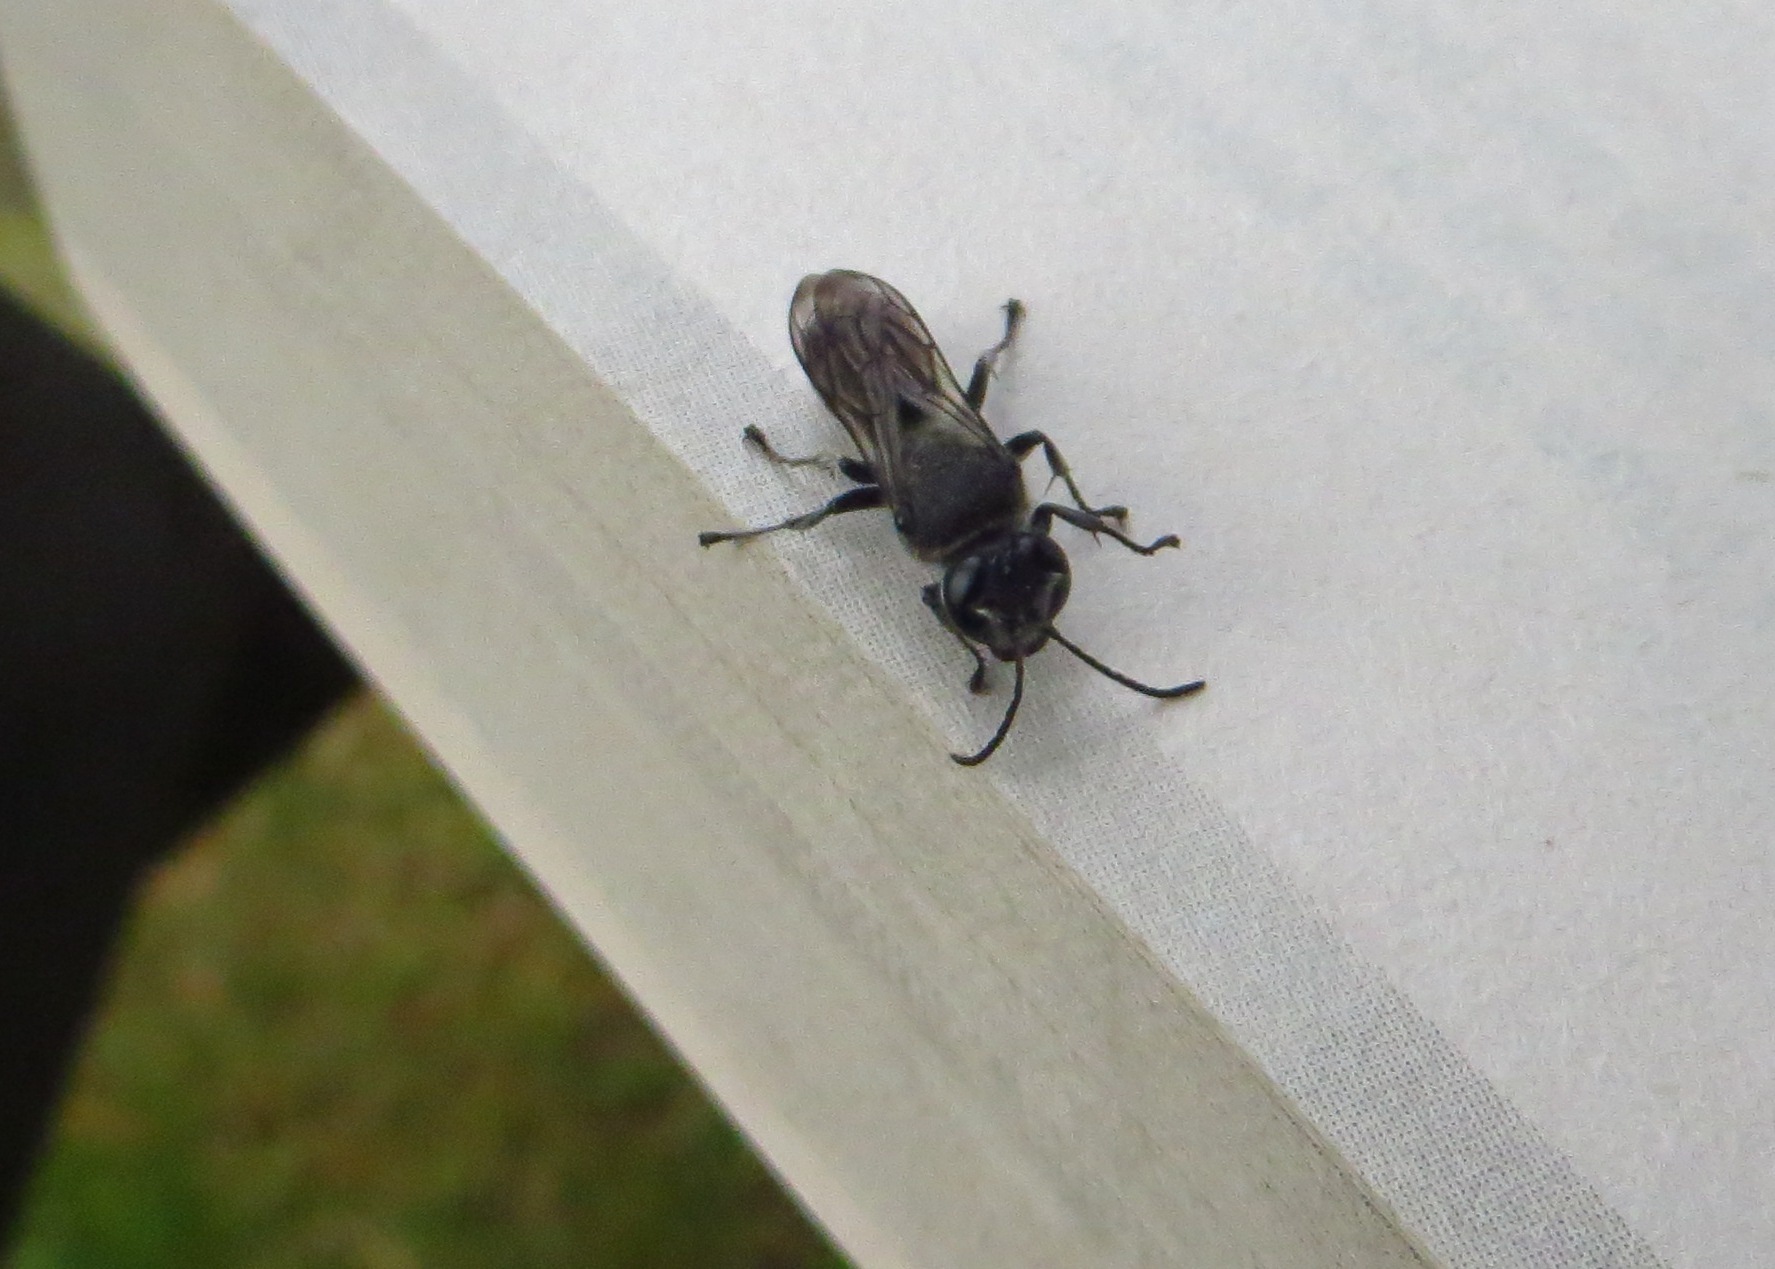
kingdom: Animalia
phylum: Arthropoda
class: Insecta
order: Hymenoptera
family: Crabronidae
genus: Pison
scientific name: Pison spinolae
